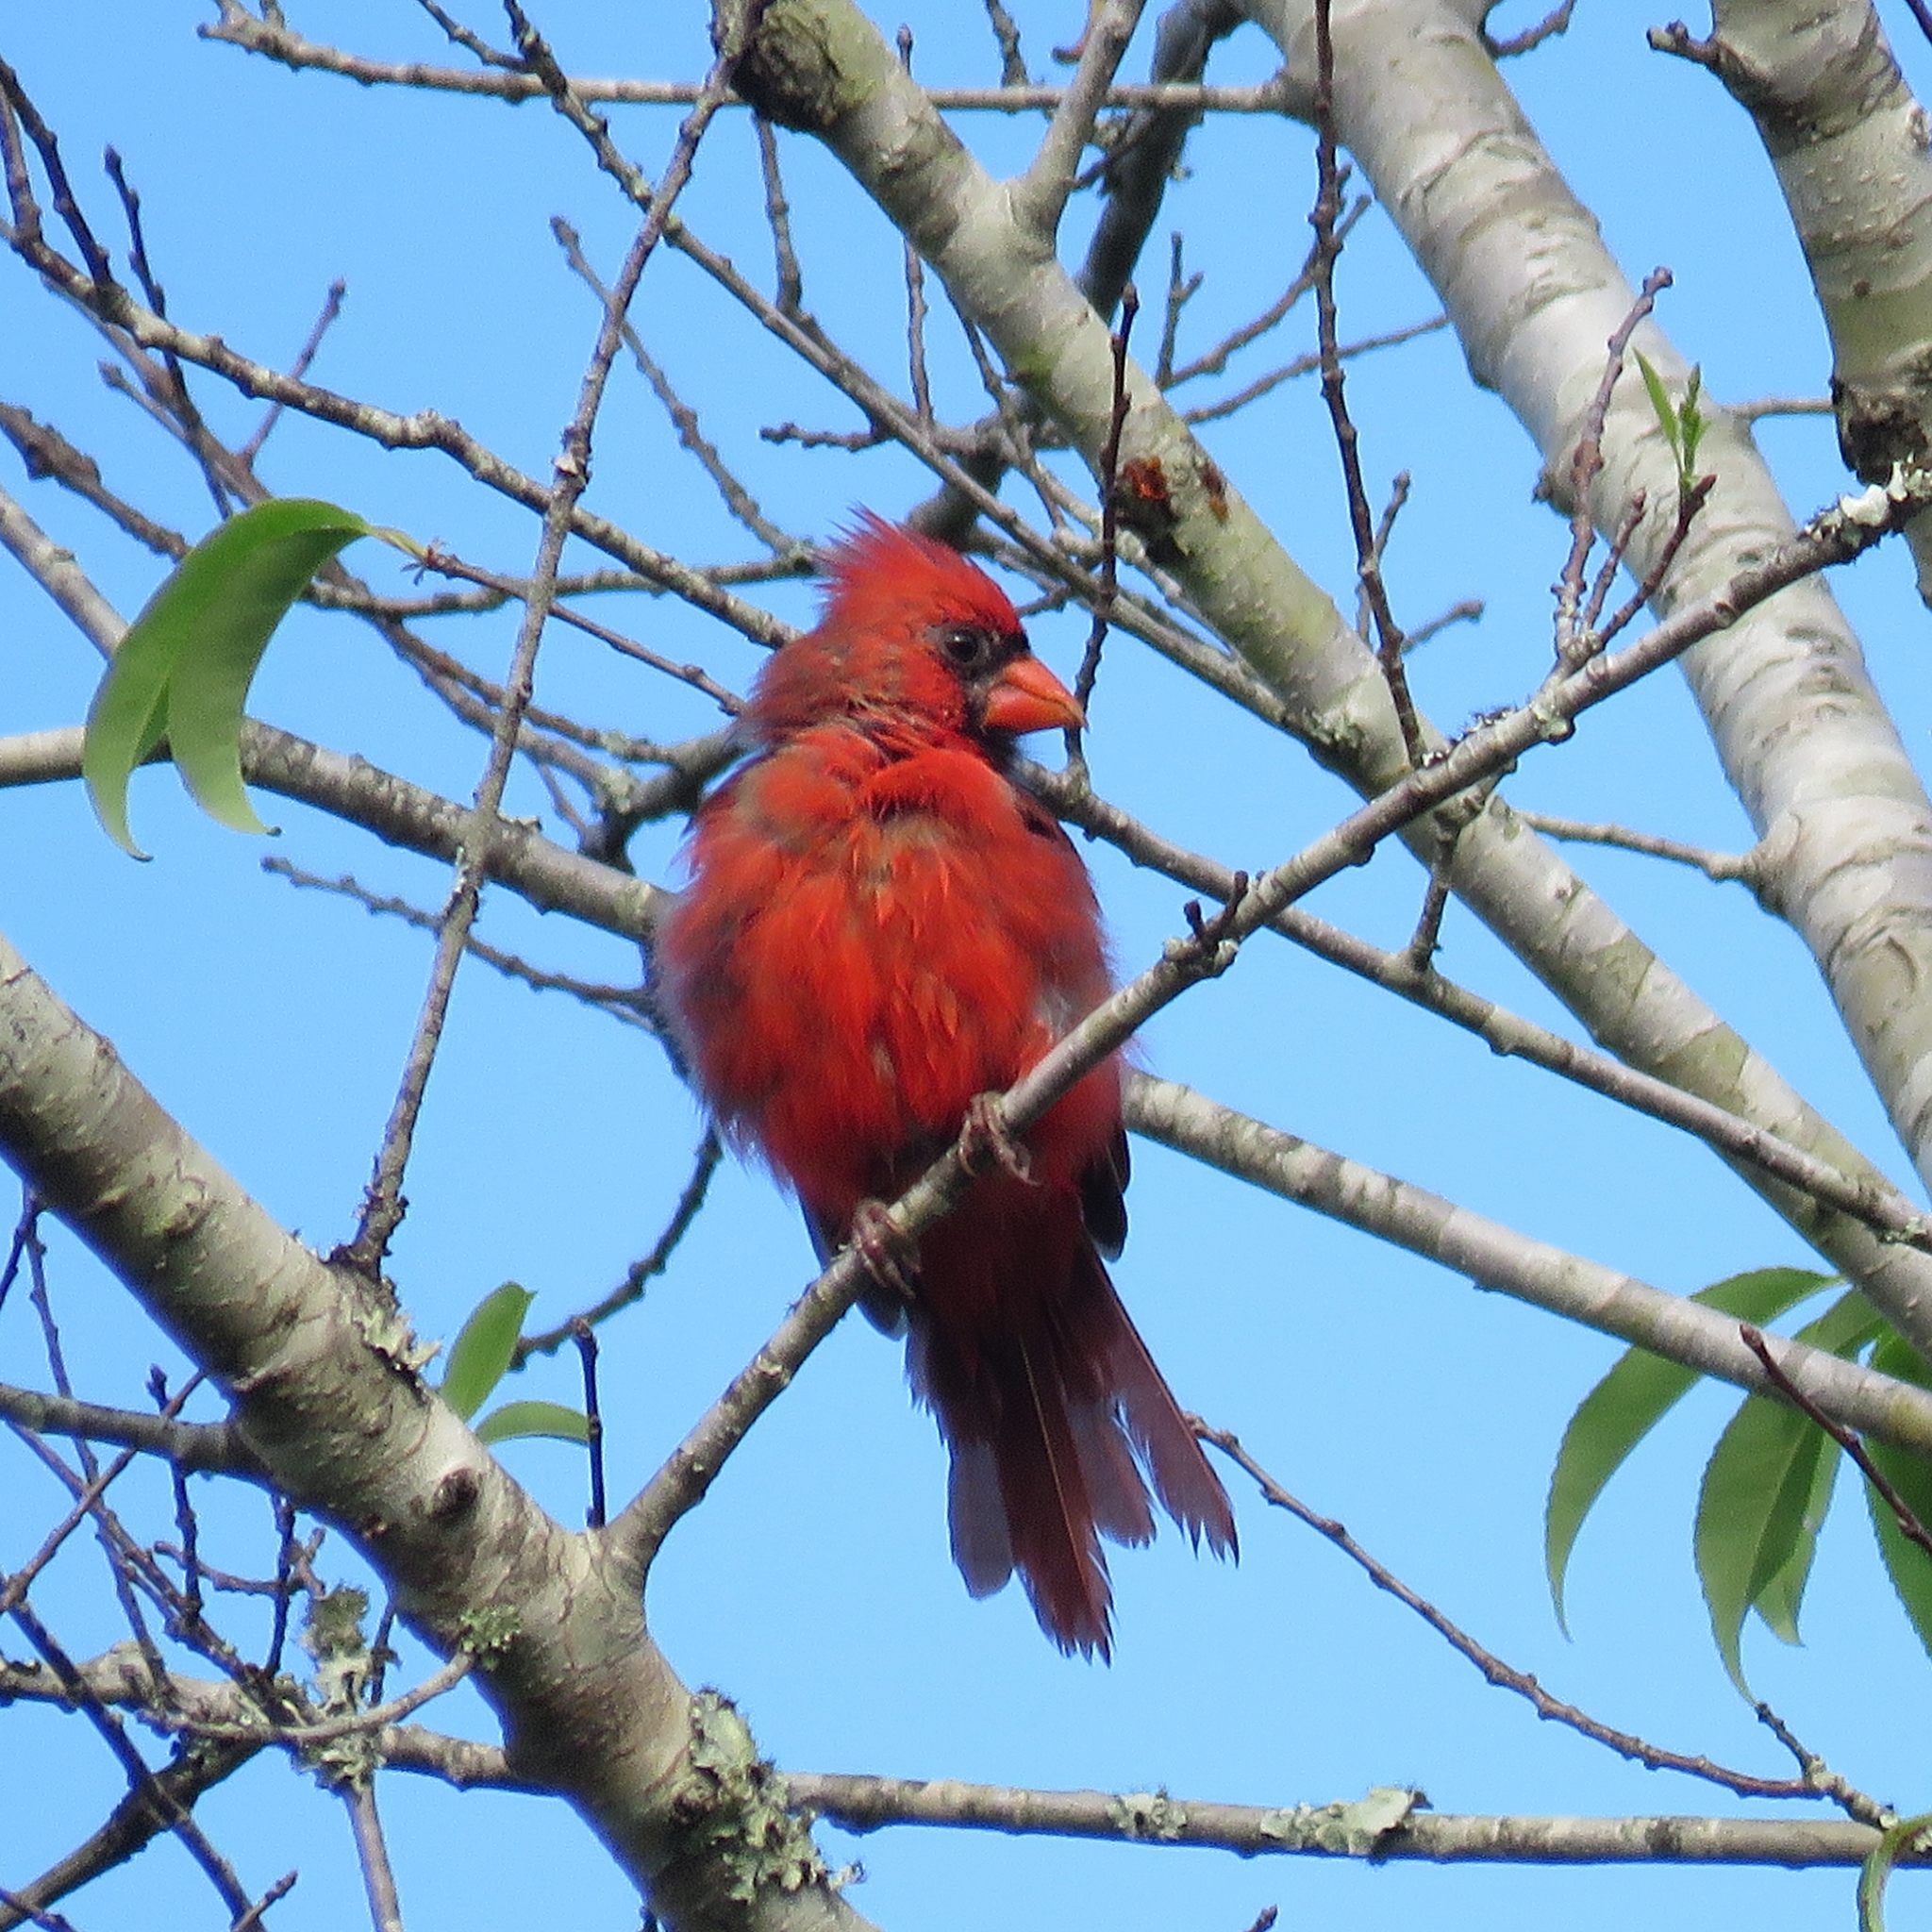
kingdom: Animalia
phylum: Chordata
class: Aves
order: Passeriformes
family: Cardinalidae
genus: Cardinalis
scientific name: Cardinalis cardinalis
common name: Northern cardinal
